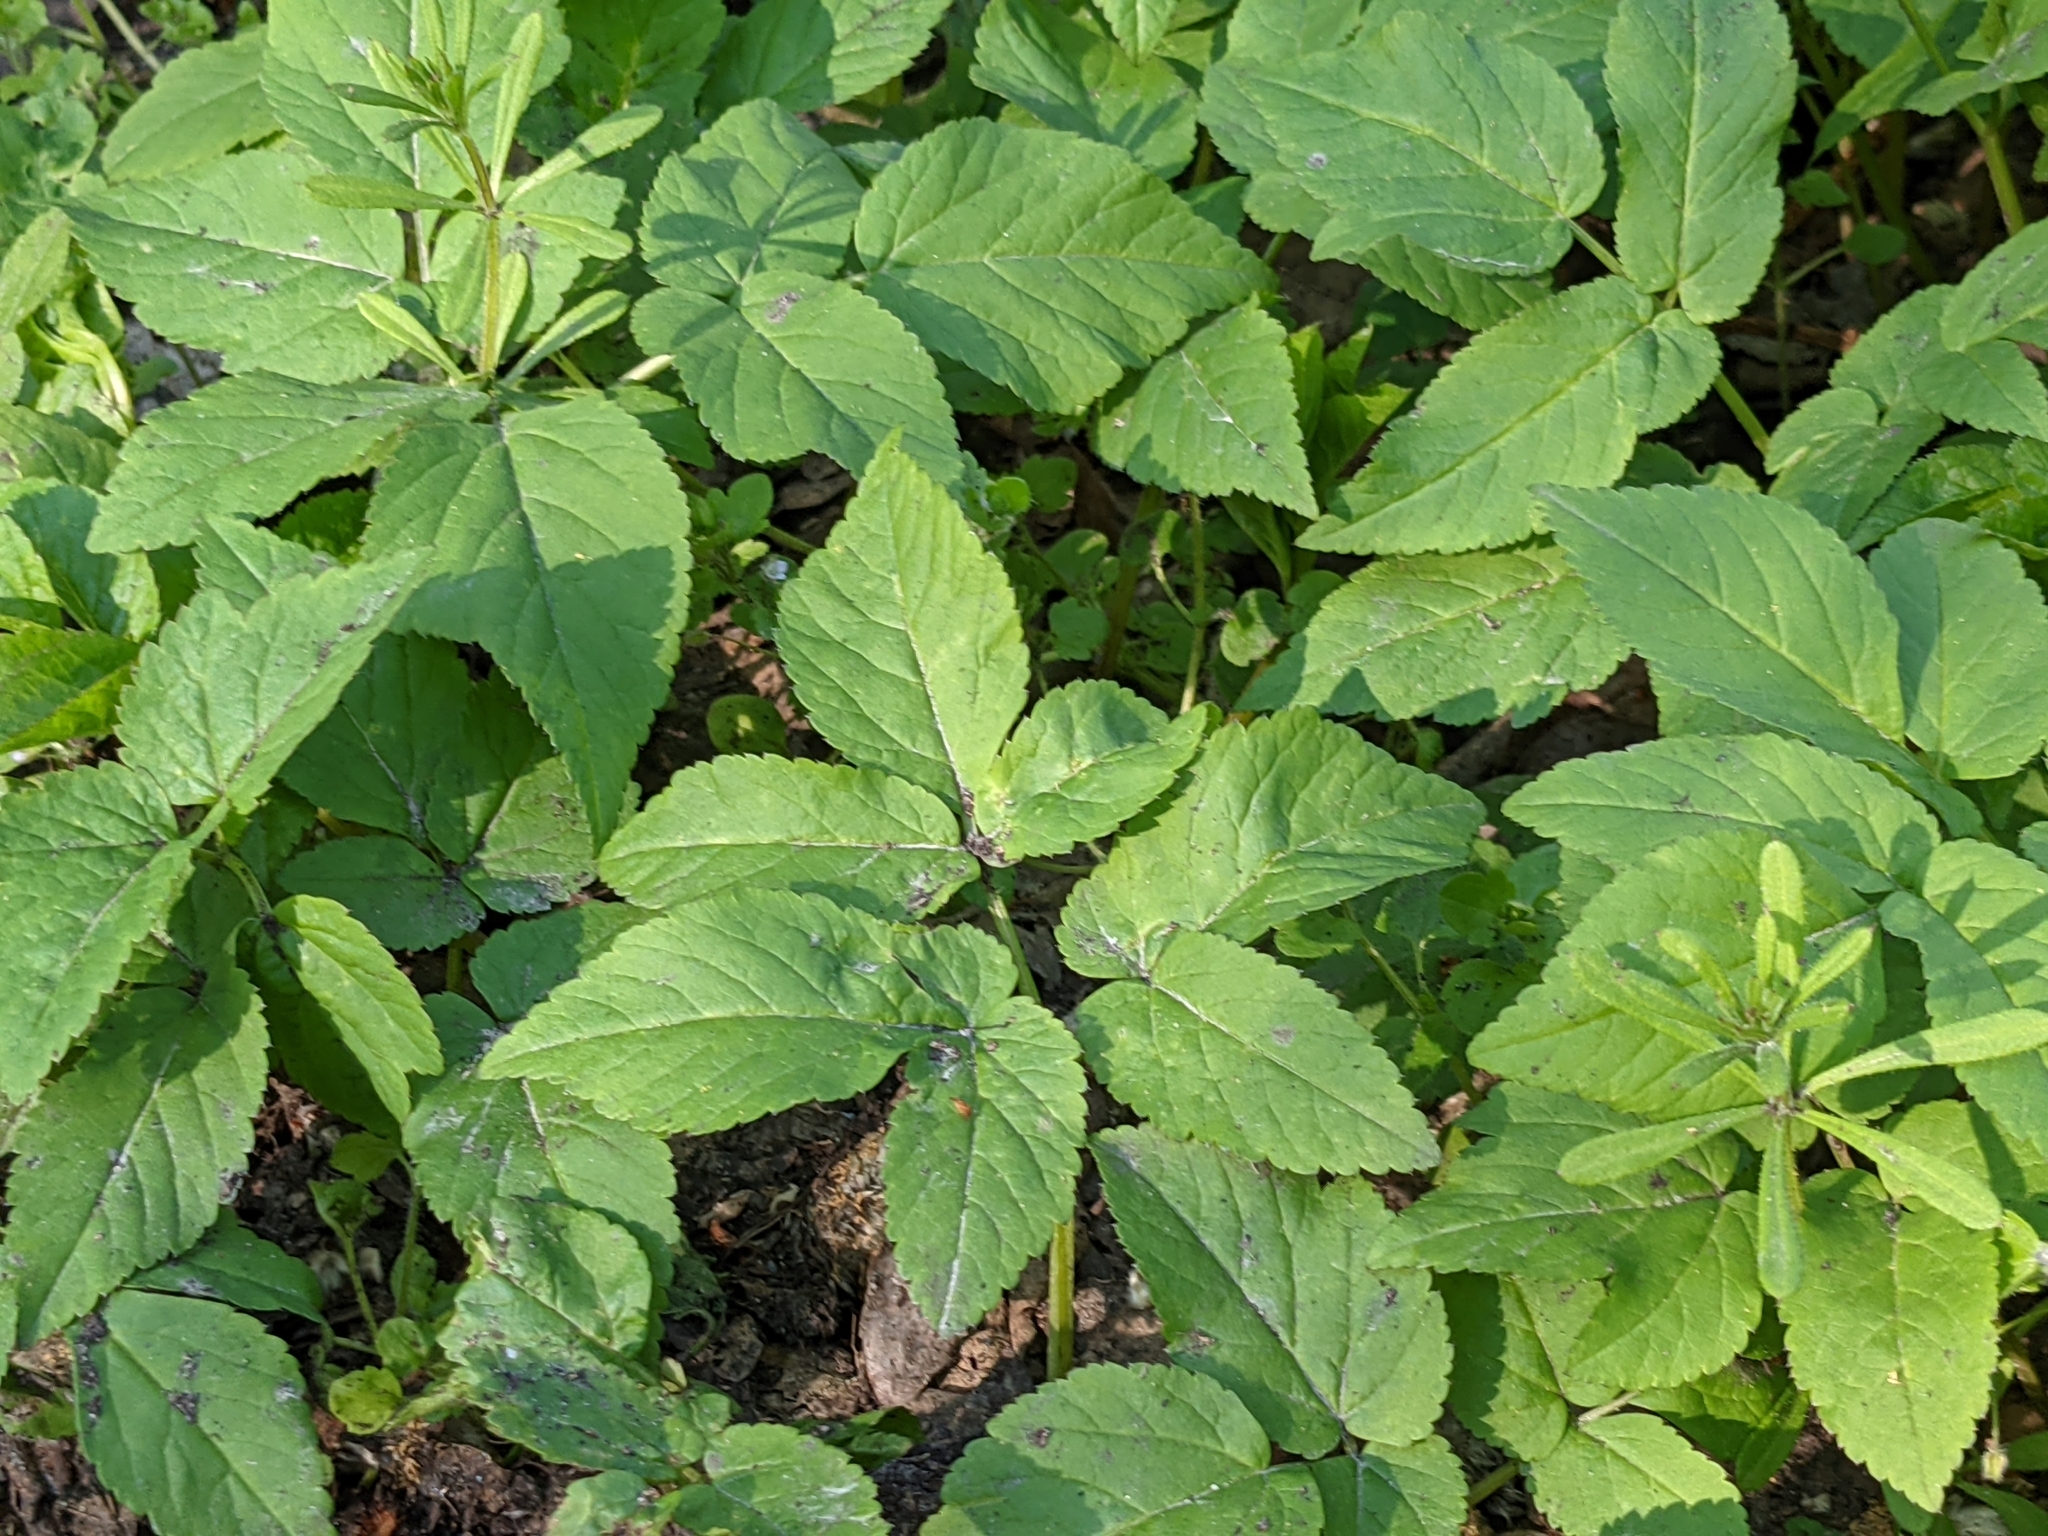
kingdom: Plantae
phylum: Tracheophyta
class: Magnoliopsida
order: Apiales
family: Apiaceae
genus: Aegopodium
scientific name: Aegopodium podagraria
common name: Ground-elder
